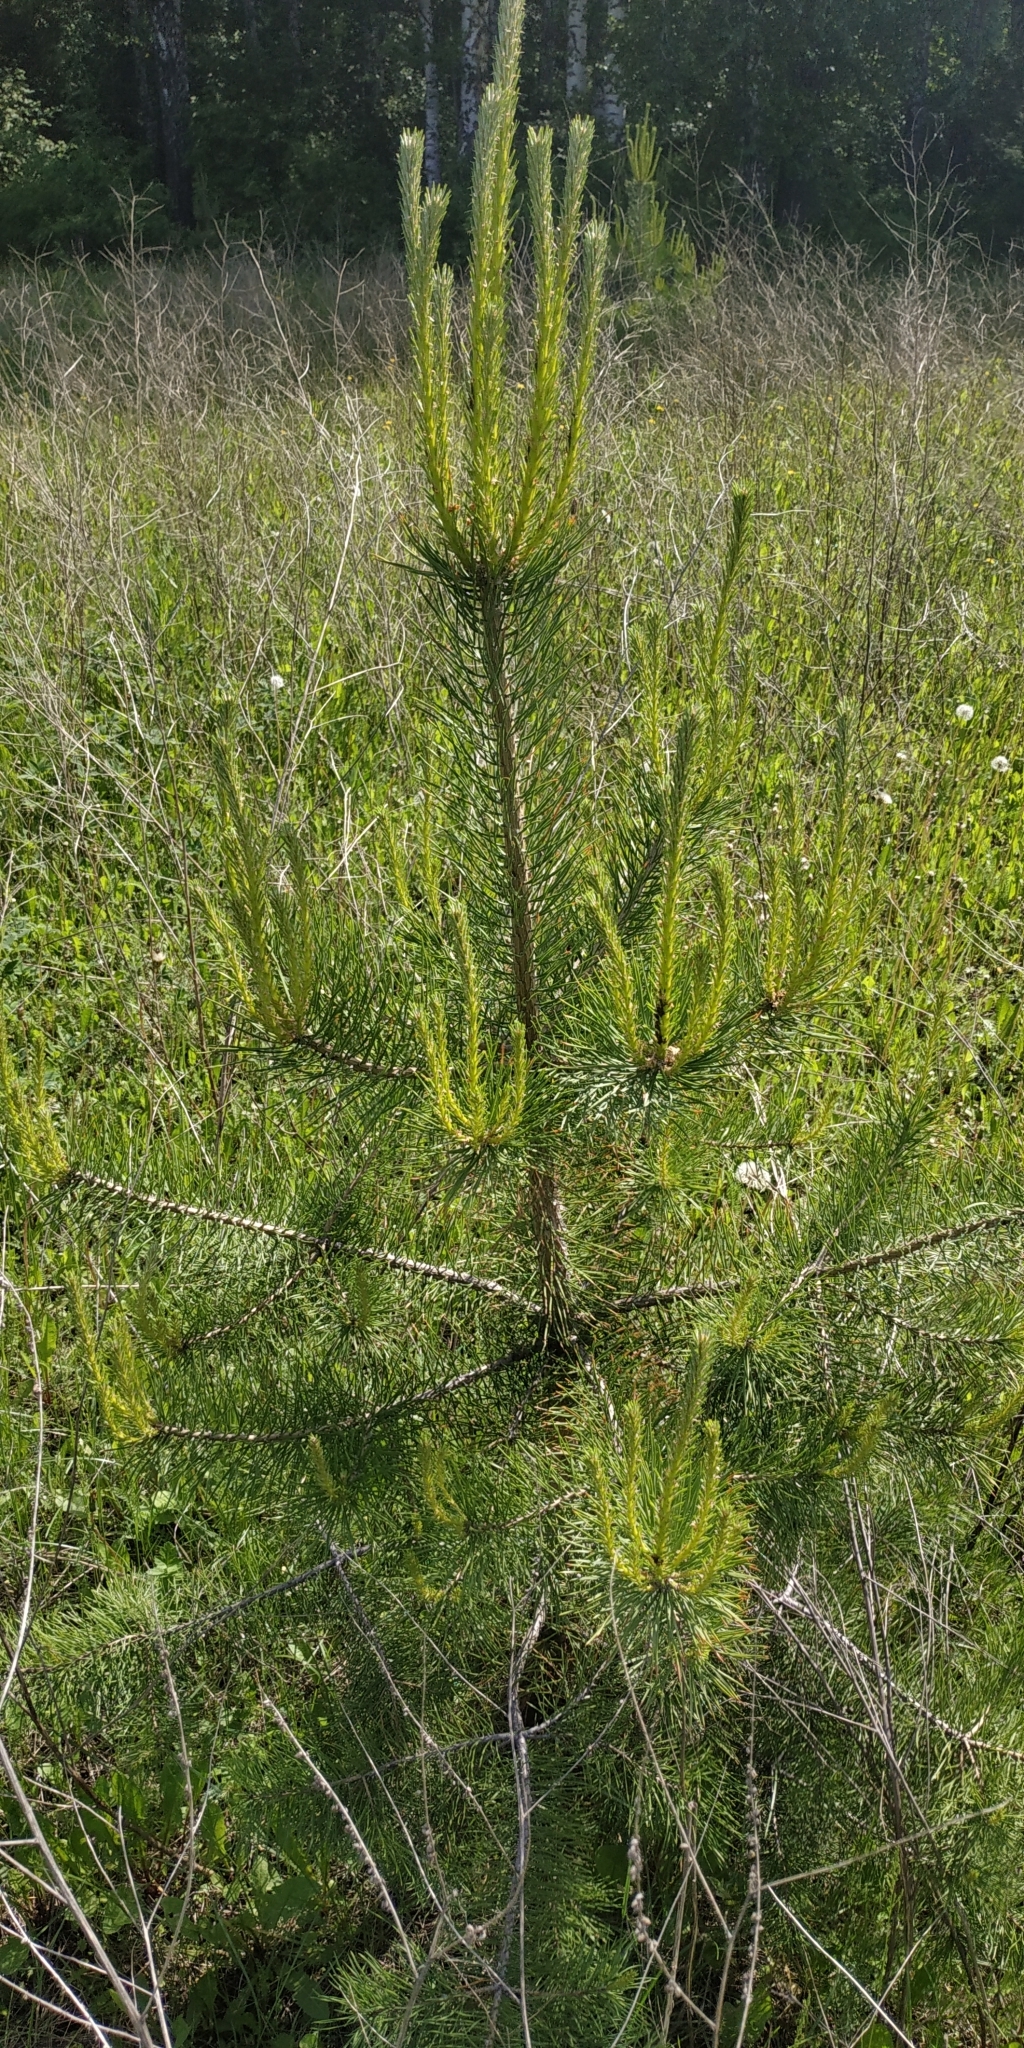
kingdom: Plantae
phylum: Tracheophyta
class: Pinopsida
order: Pinales
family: Pinaceae
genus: Pinus
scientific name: Pinus sylvestris
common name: Scots pine
